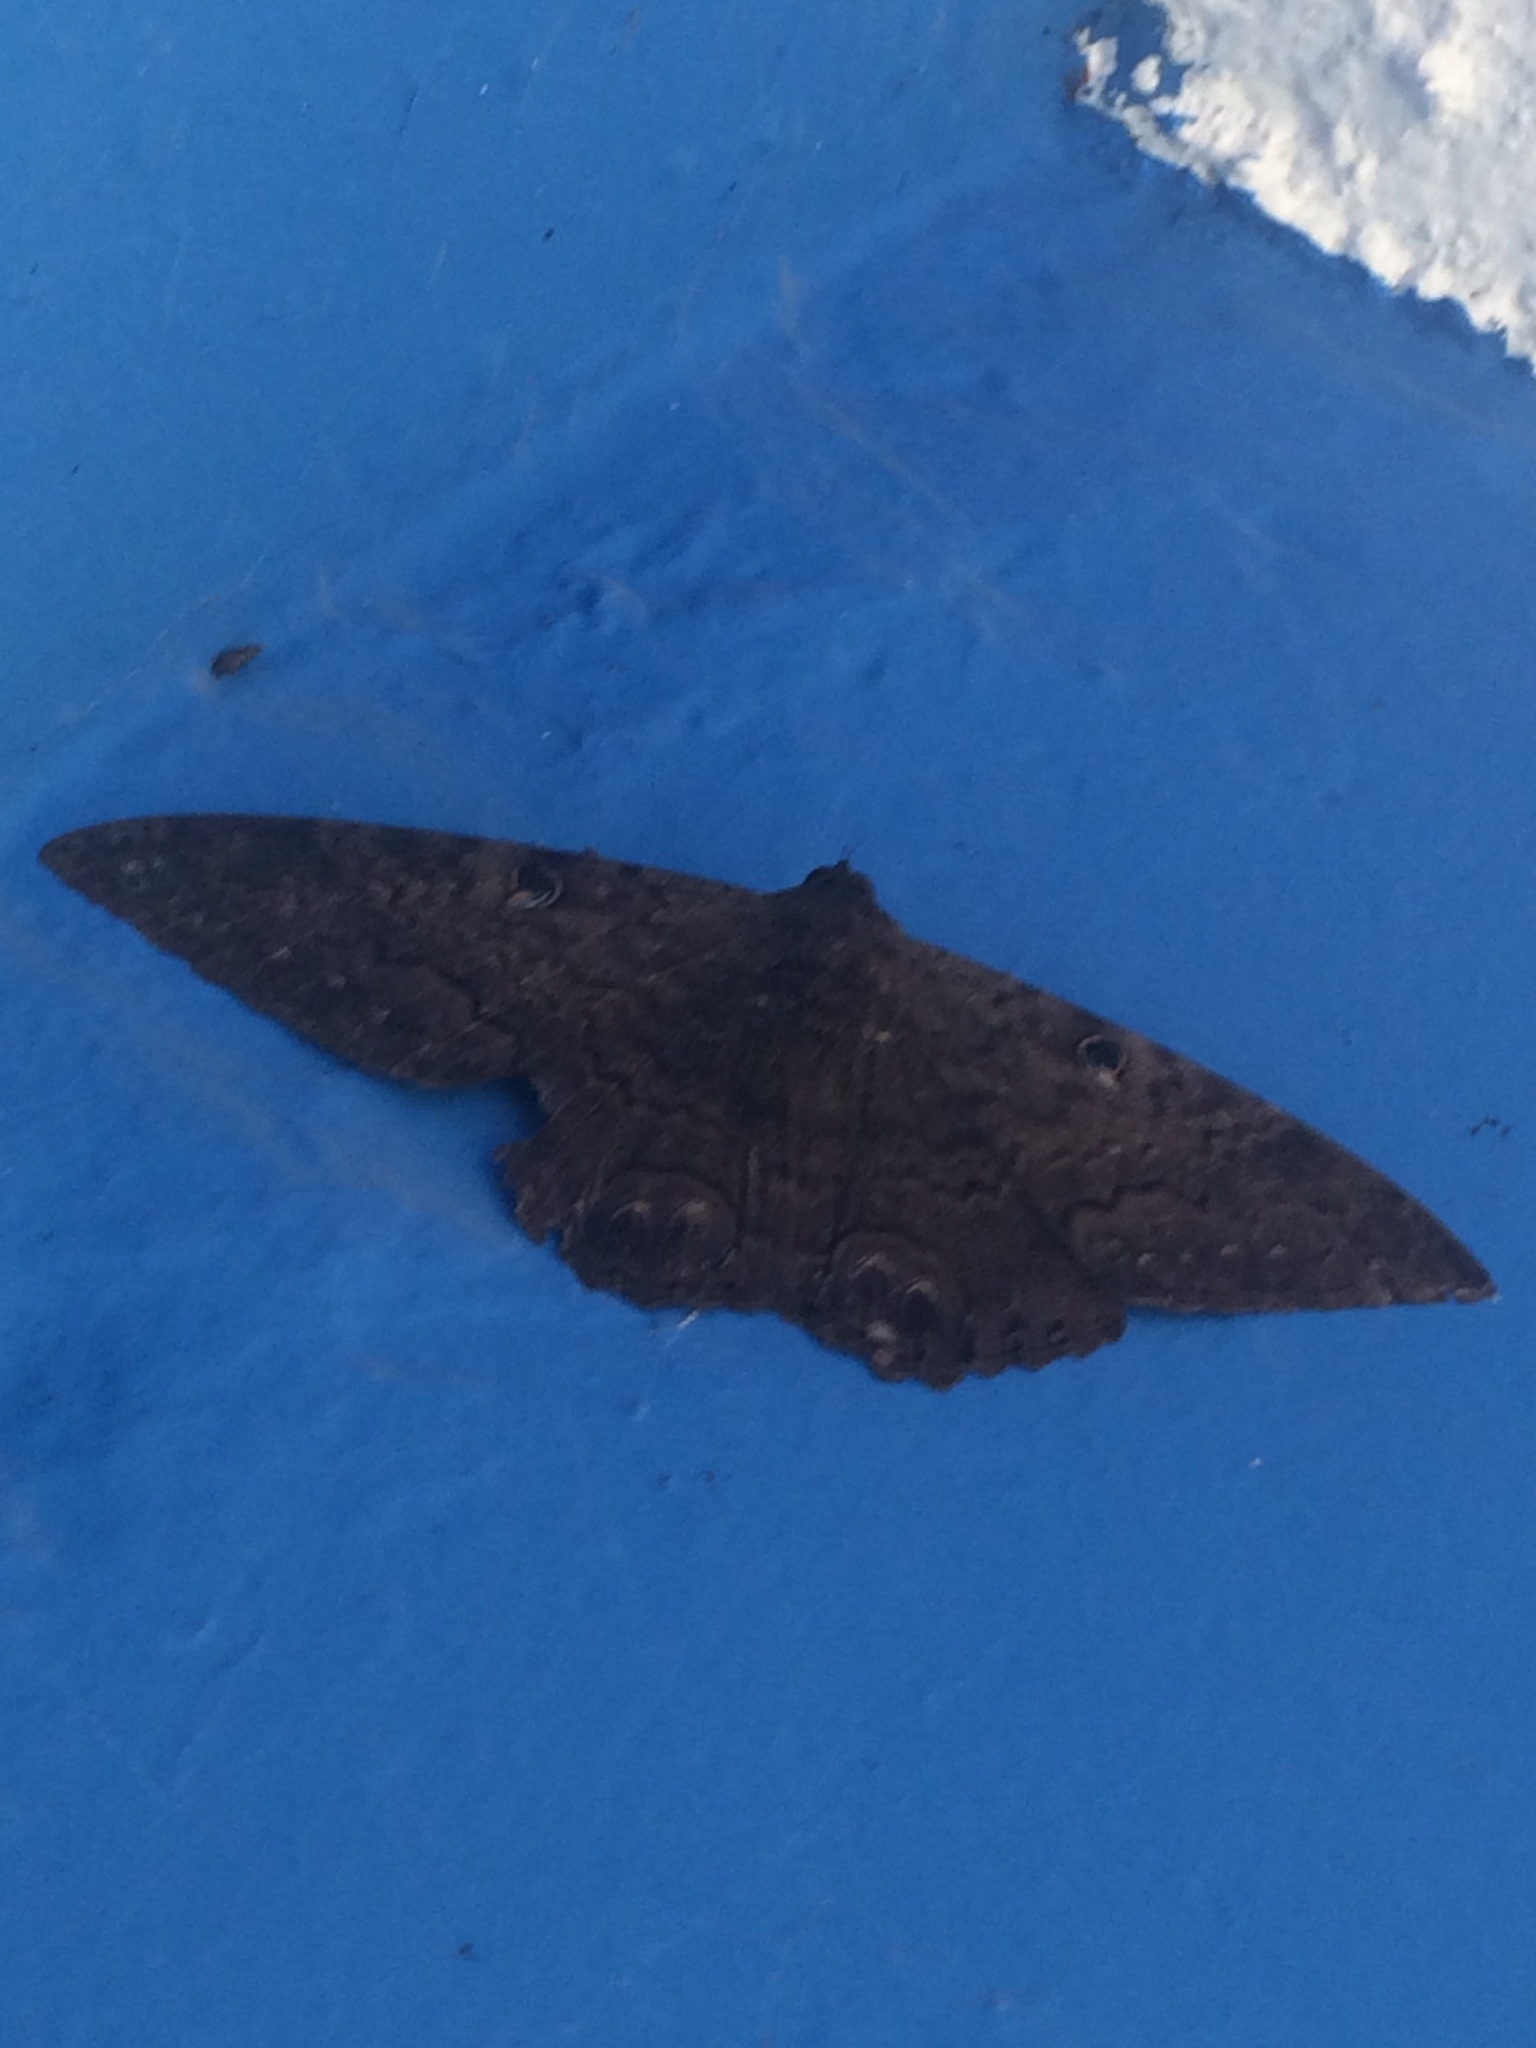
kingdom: Animalia
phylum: Arthropoda
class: Insecta
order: Lepidoptera
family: Erebidae
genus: Ascalapha
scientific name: Ascalapha odorata
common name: Black witch
